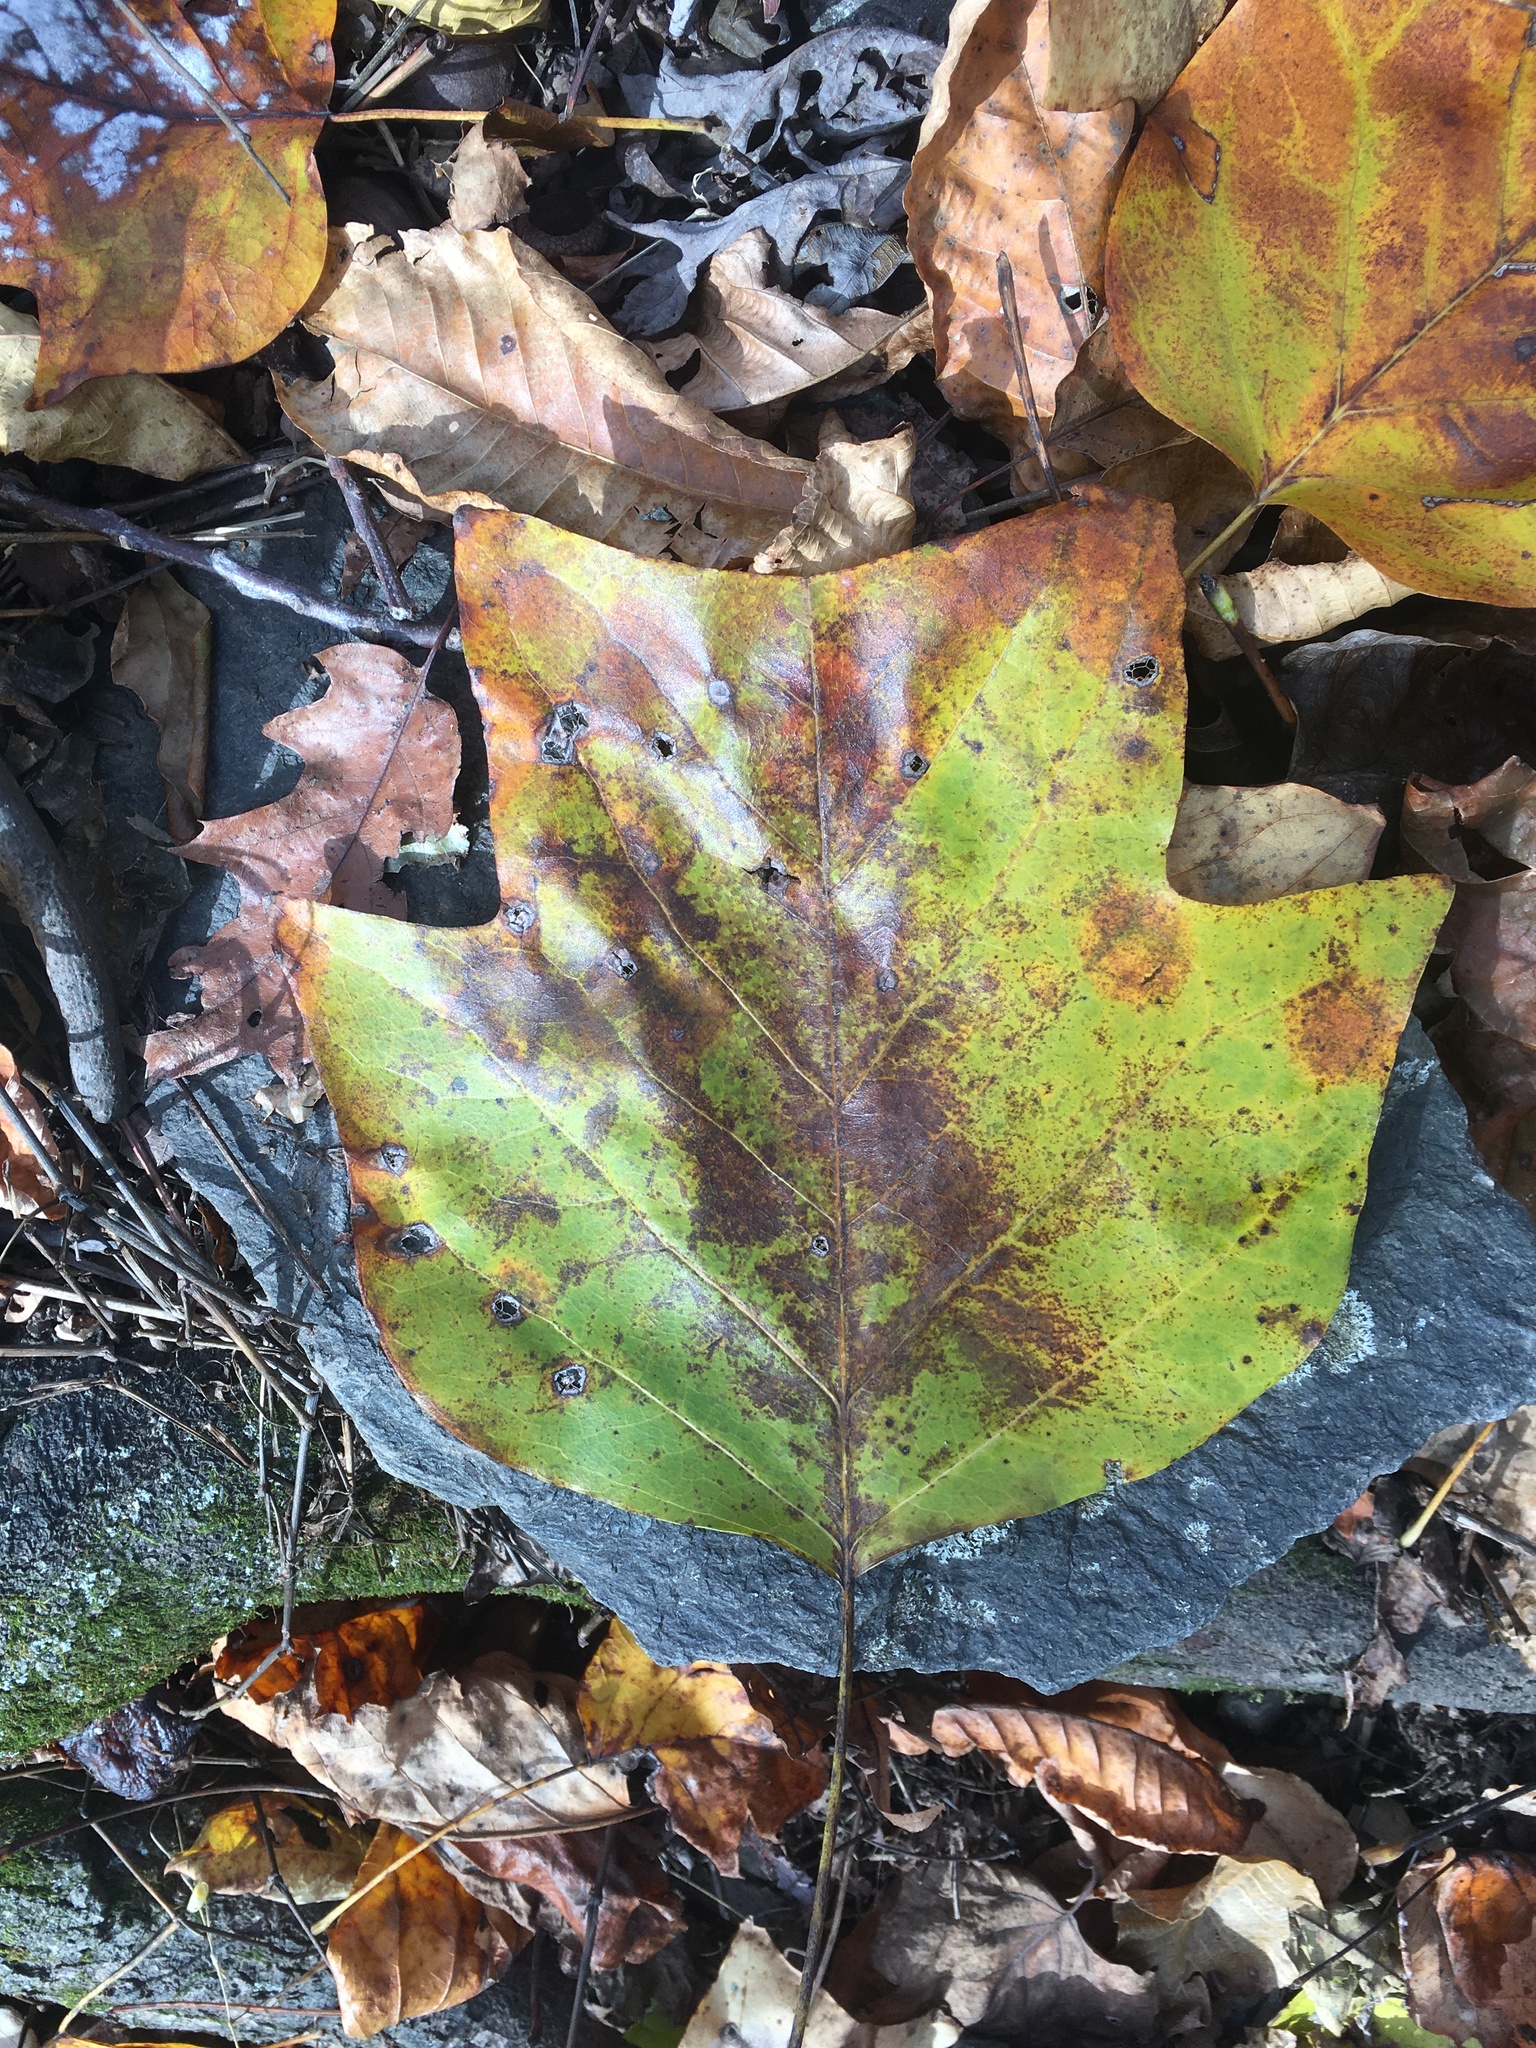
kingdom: Plantae
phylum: Tracheophyta
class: Magnoliopsida
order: Magnoliales
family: Magnoliaceae
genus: Liriodendron
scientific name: Liriodendron tulipifera
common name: Tulip tree
